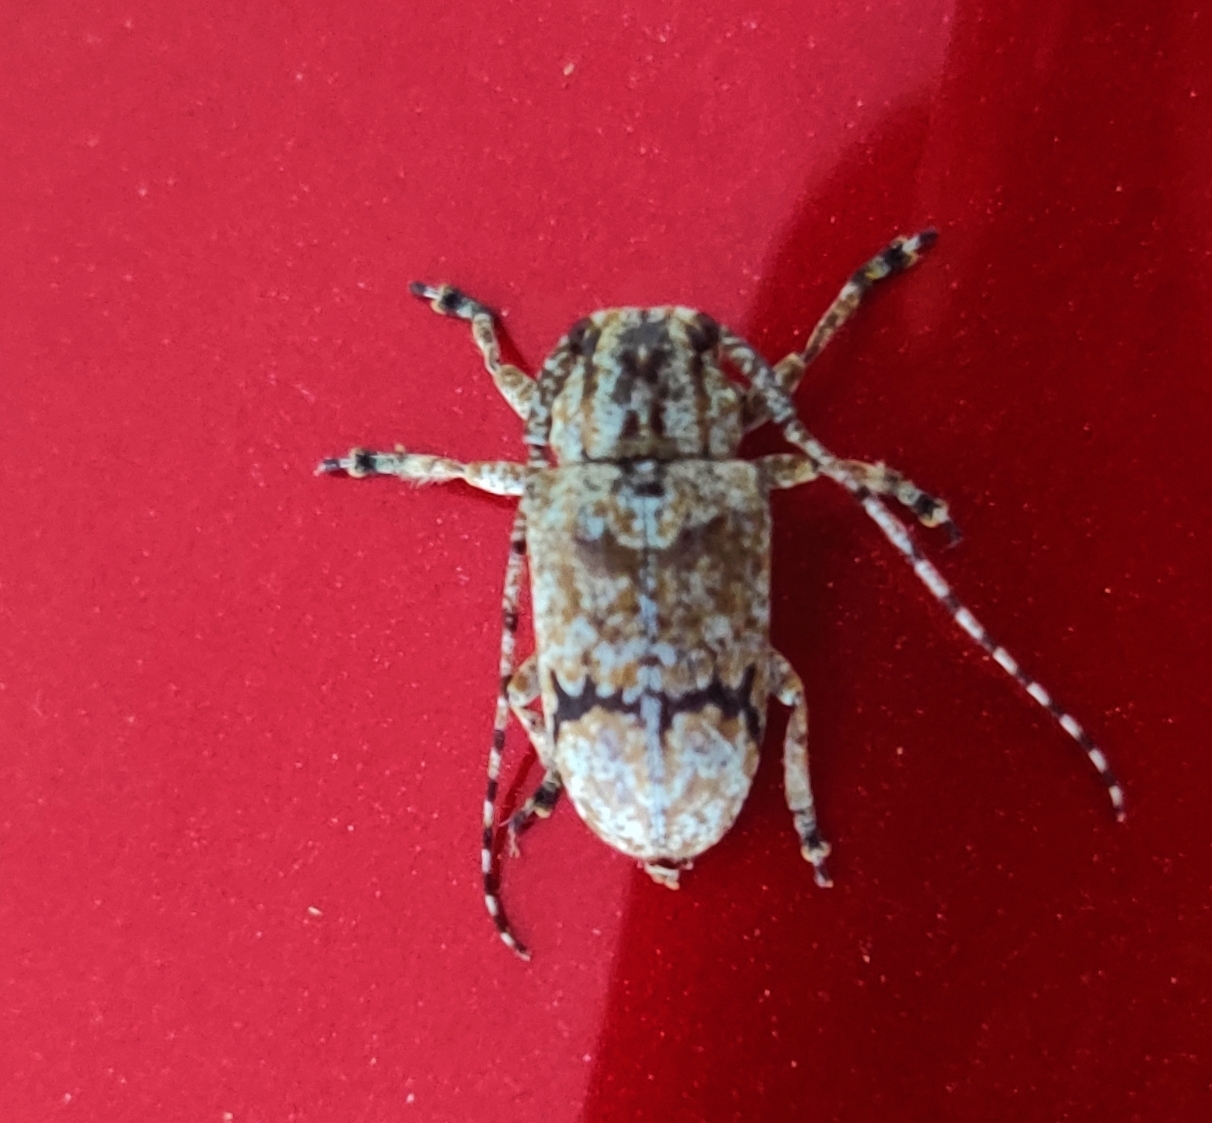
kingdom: Animalia
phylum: Arthropoda
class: Insecta
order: Coleoptera
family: Cerambycidae
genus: Coptops
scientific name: Coptops aedificator
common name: Long-horned beetle
